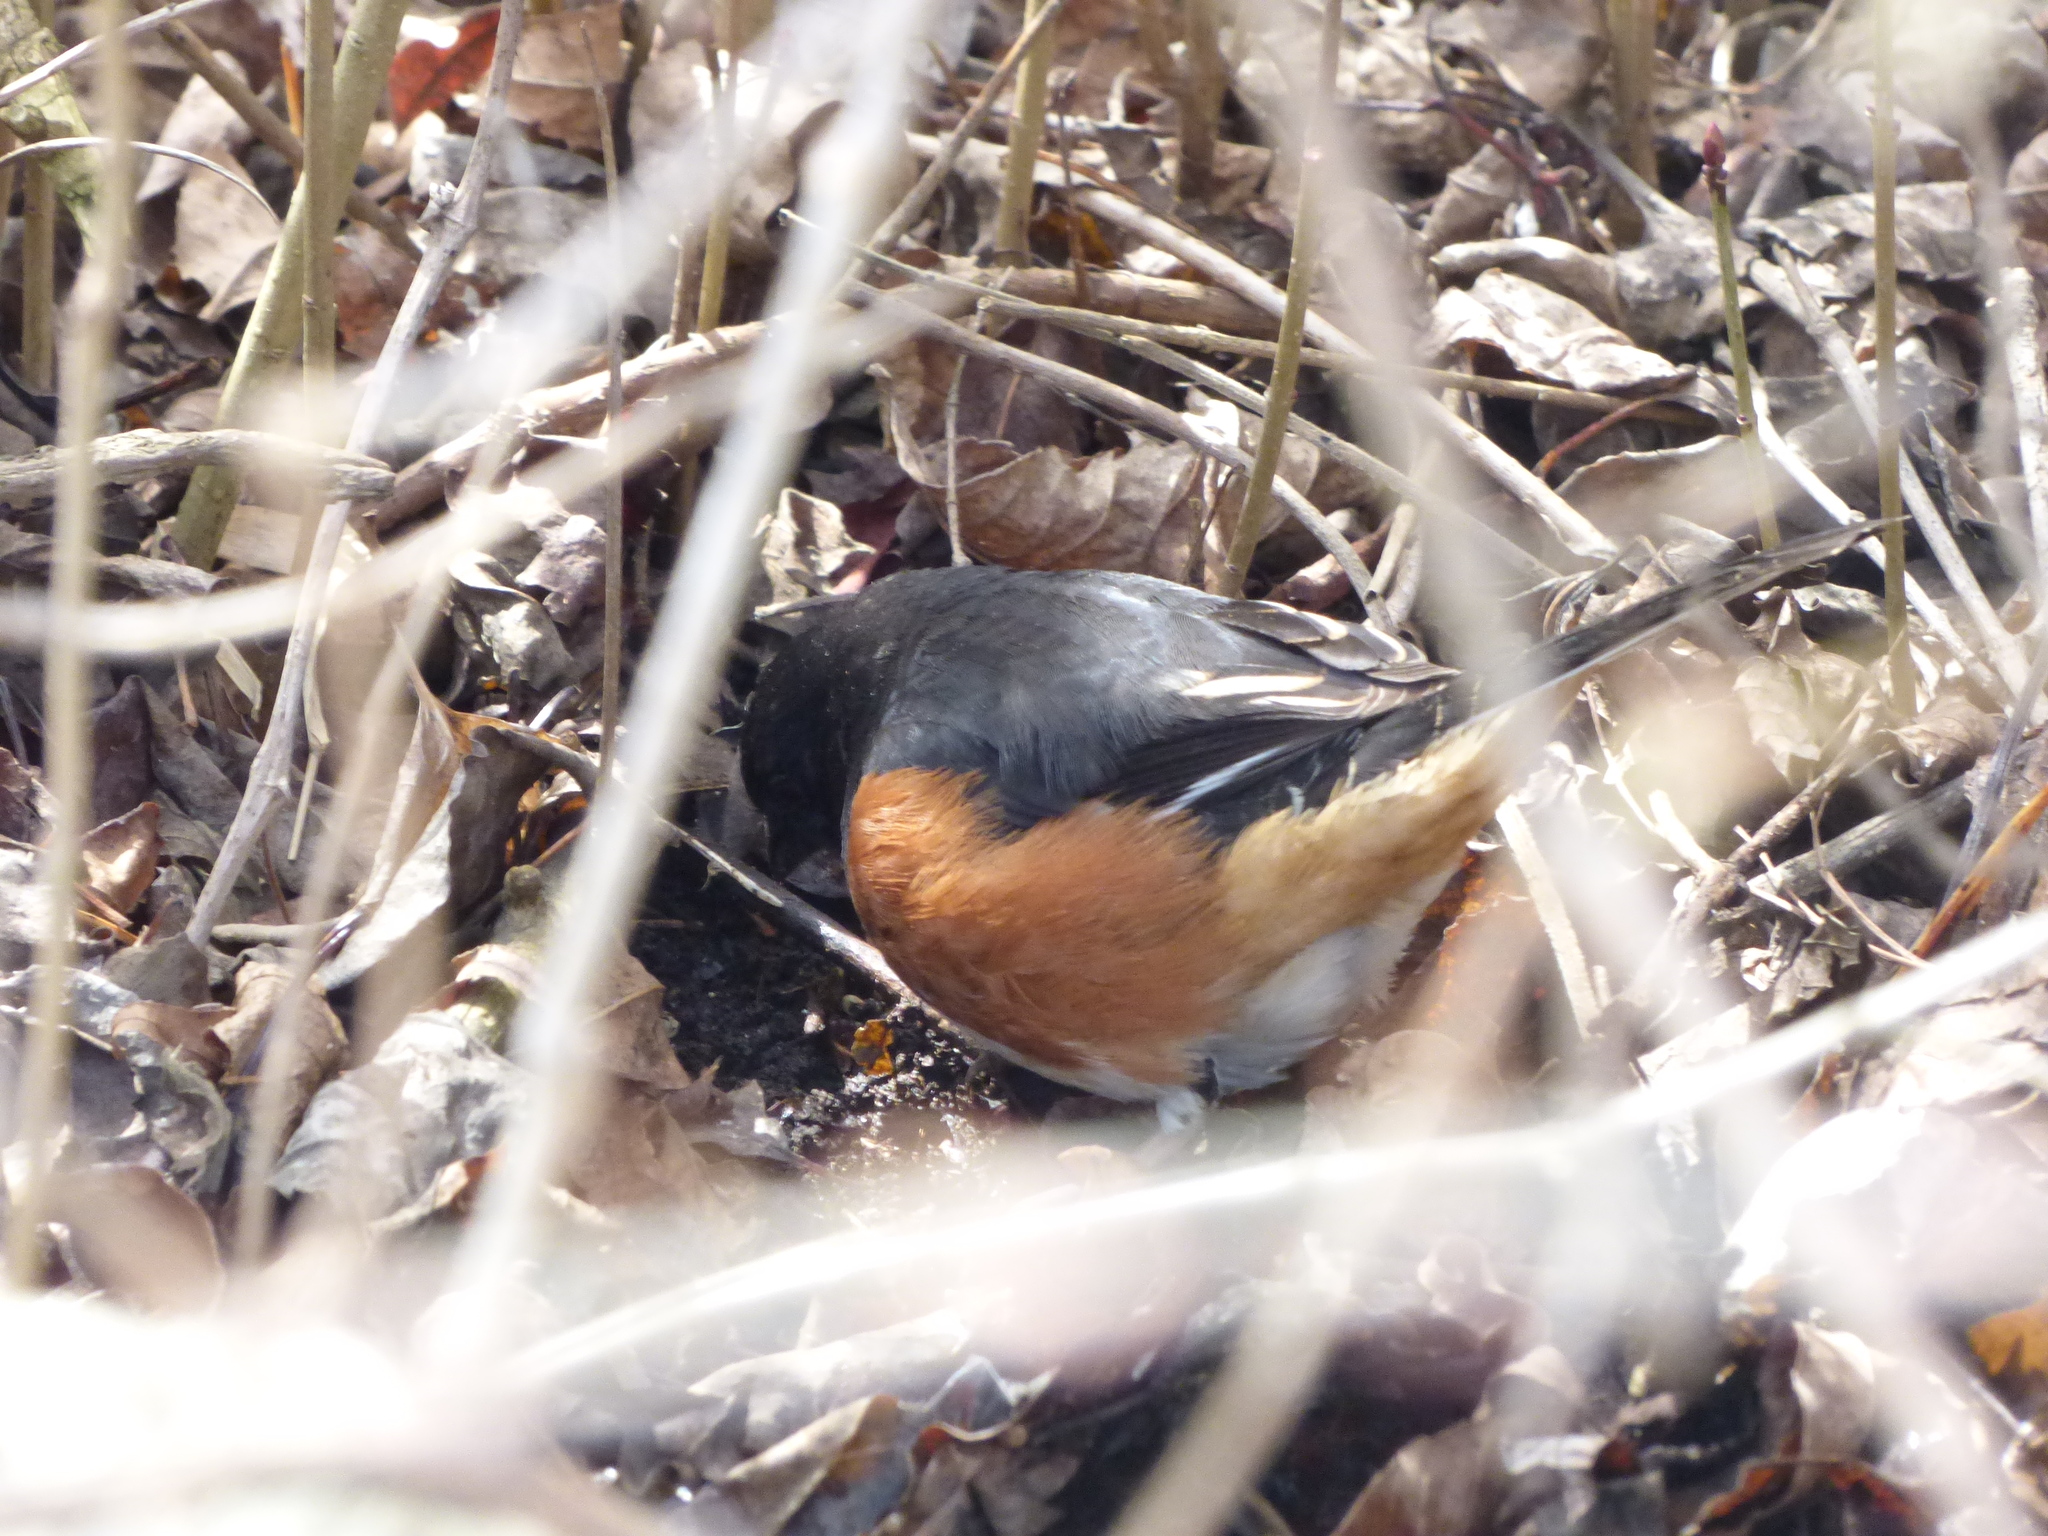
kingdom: Animalia
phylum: Chordata
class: Aves
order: Passeriformes
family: Passerellidae
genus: Pipilo
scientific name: Pipilo erythrophthalmus
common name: Eastern towhee
